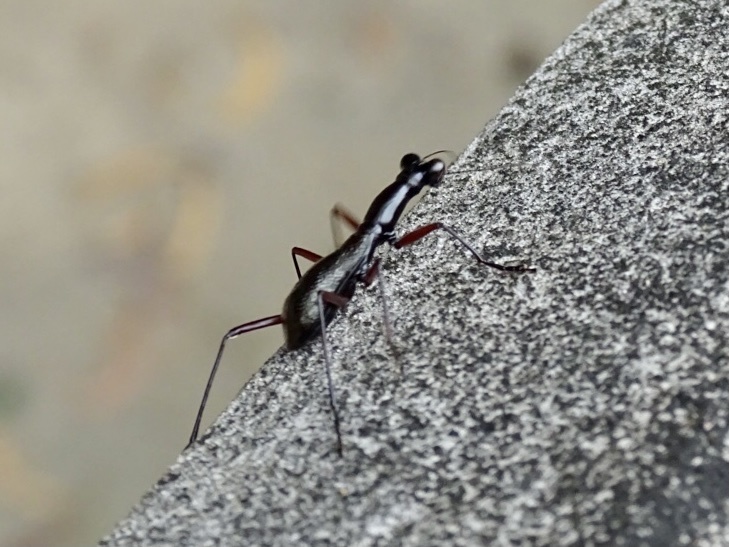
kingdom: Animalia
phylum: Arthropoda
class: Insecta
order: Coleoptera
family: Carabidae
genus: Tricondyla
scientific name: Tricondyla pulchripes
